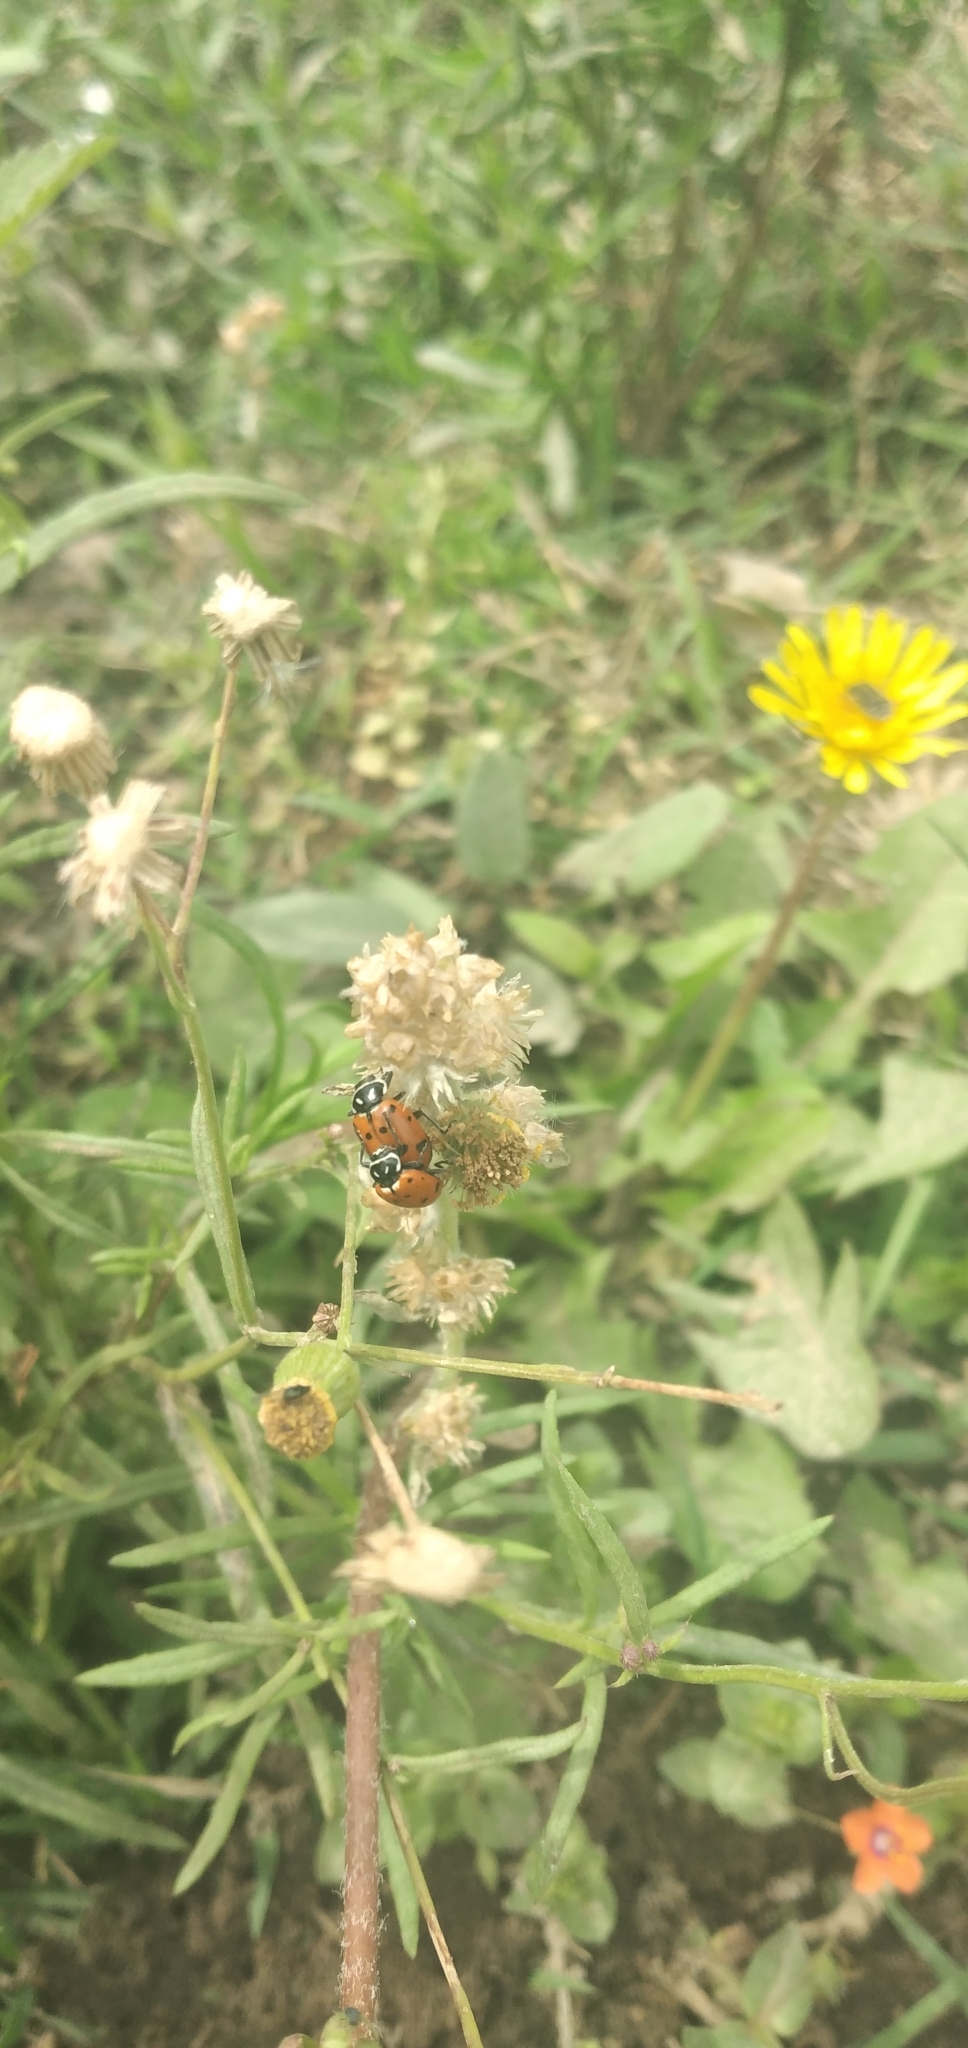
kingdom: Animalia
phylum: Arthropoda
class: Insecta
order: Coleoptera
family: Coccinellidae
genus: Hippodamia
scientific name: Hippodamia convergens
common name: Convergent lady beetle
